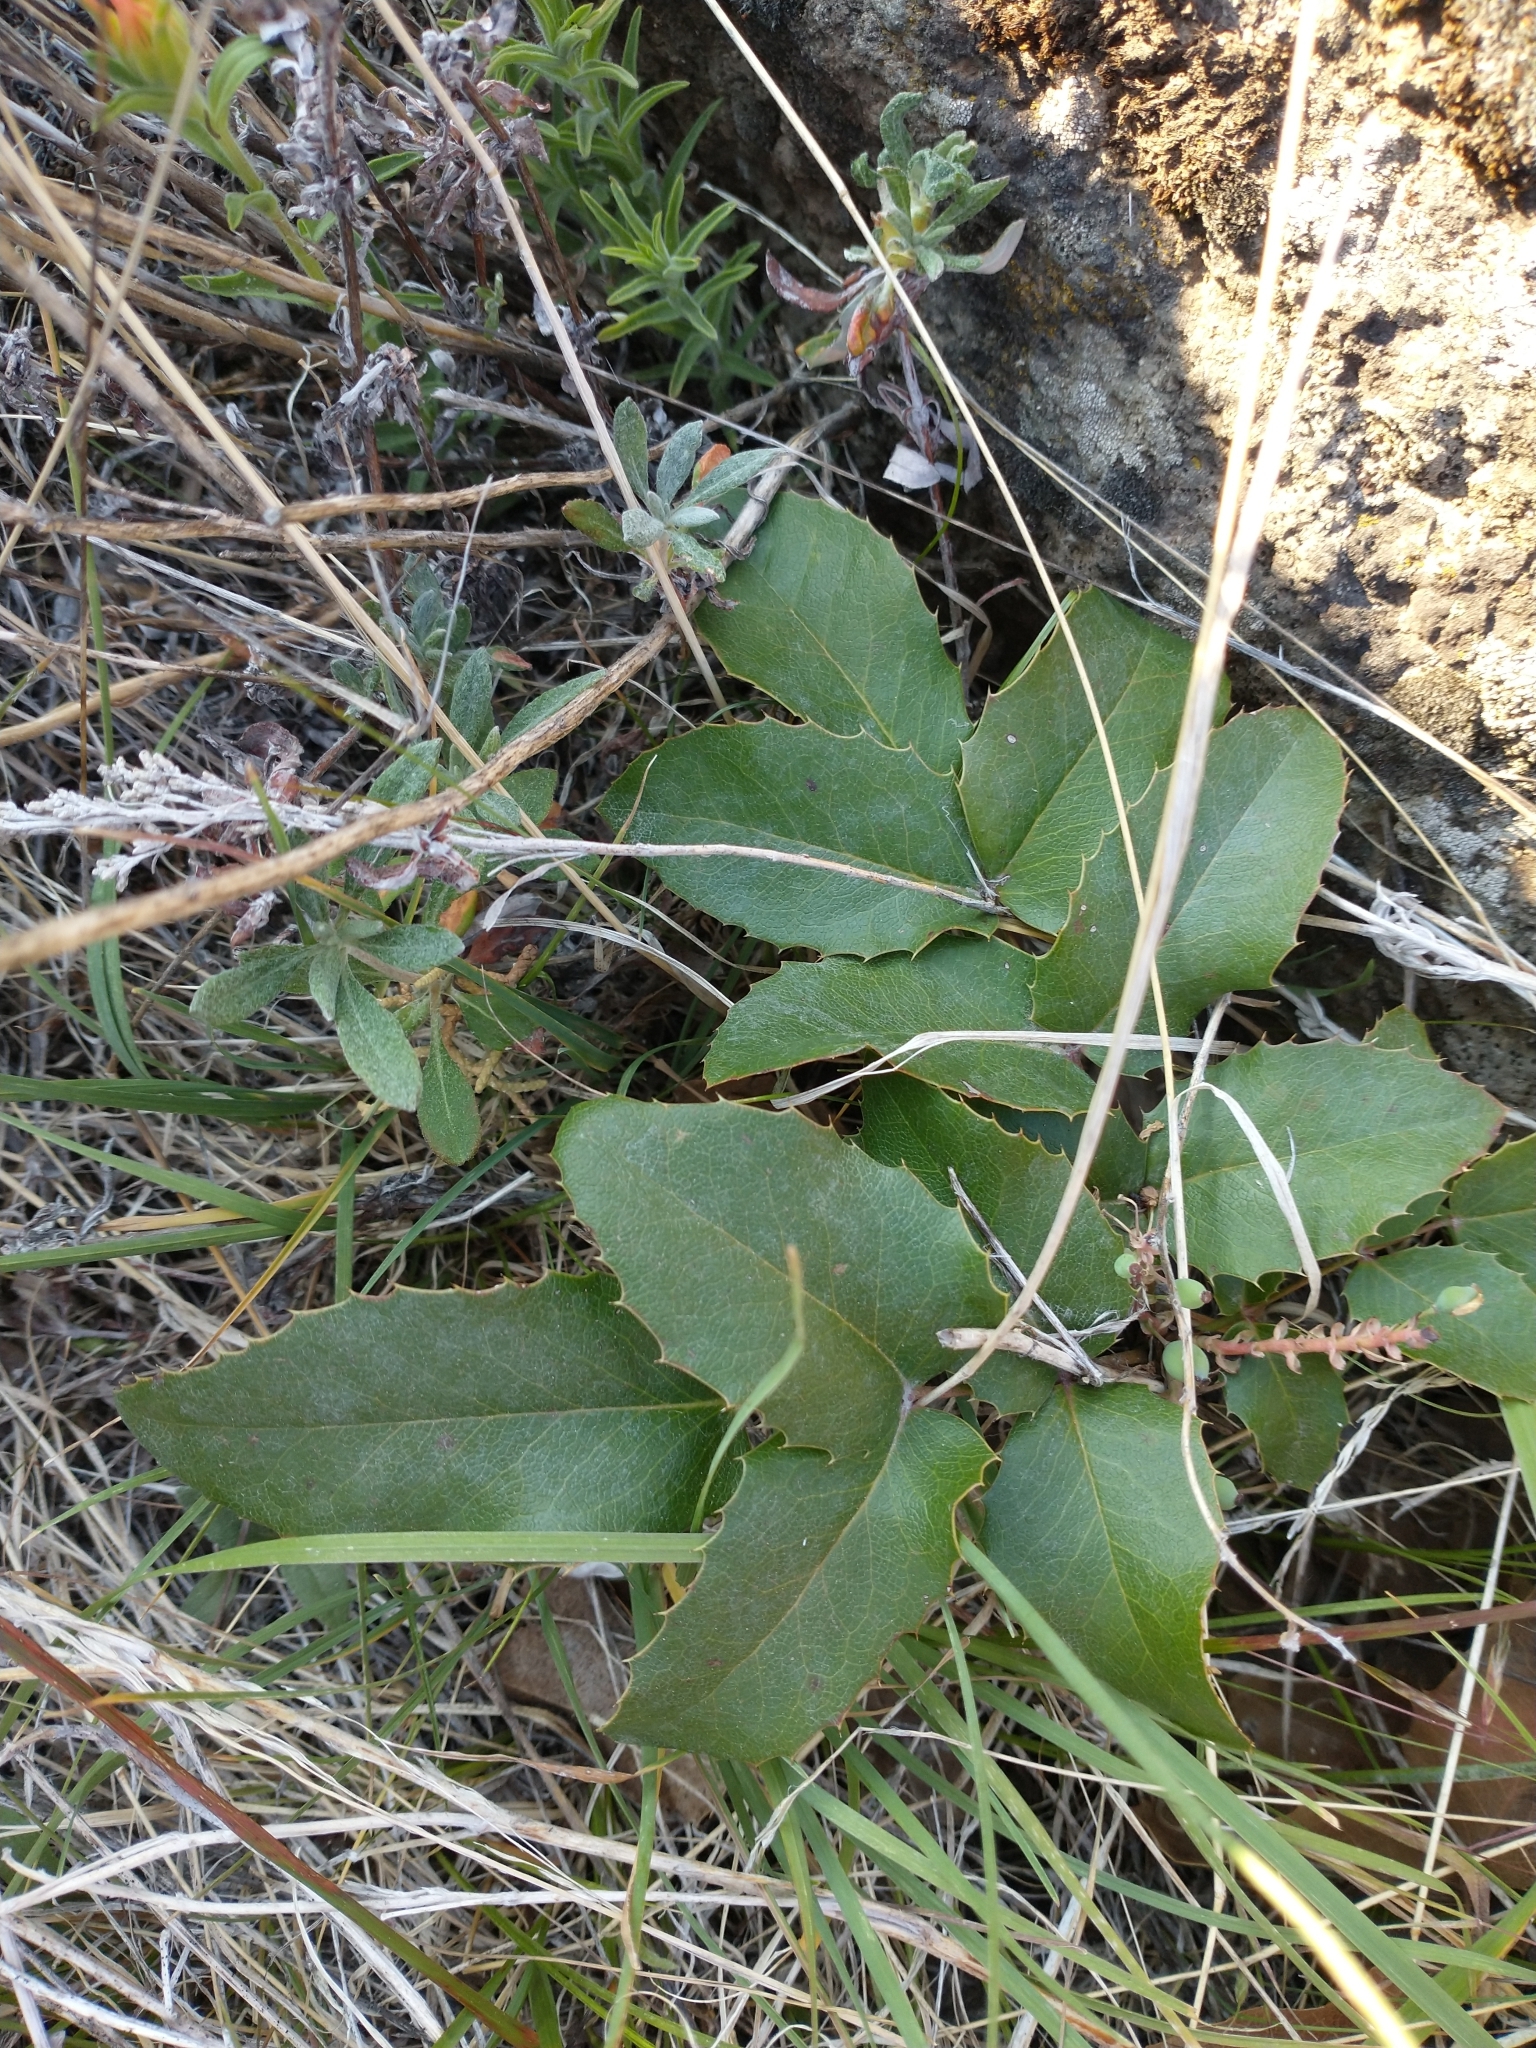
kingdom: Plantae
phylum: Tracheophyta
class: Magnoliopsida
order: Ranunculales
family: Berberidaceae
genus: Mahonia
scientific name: Mahonia repens
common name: Creeping oregon-grape
